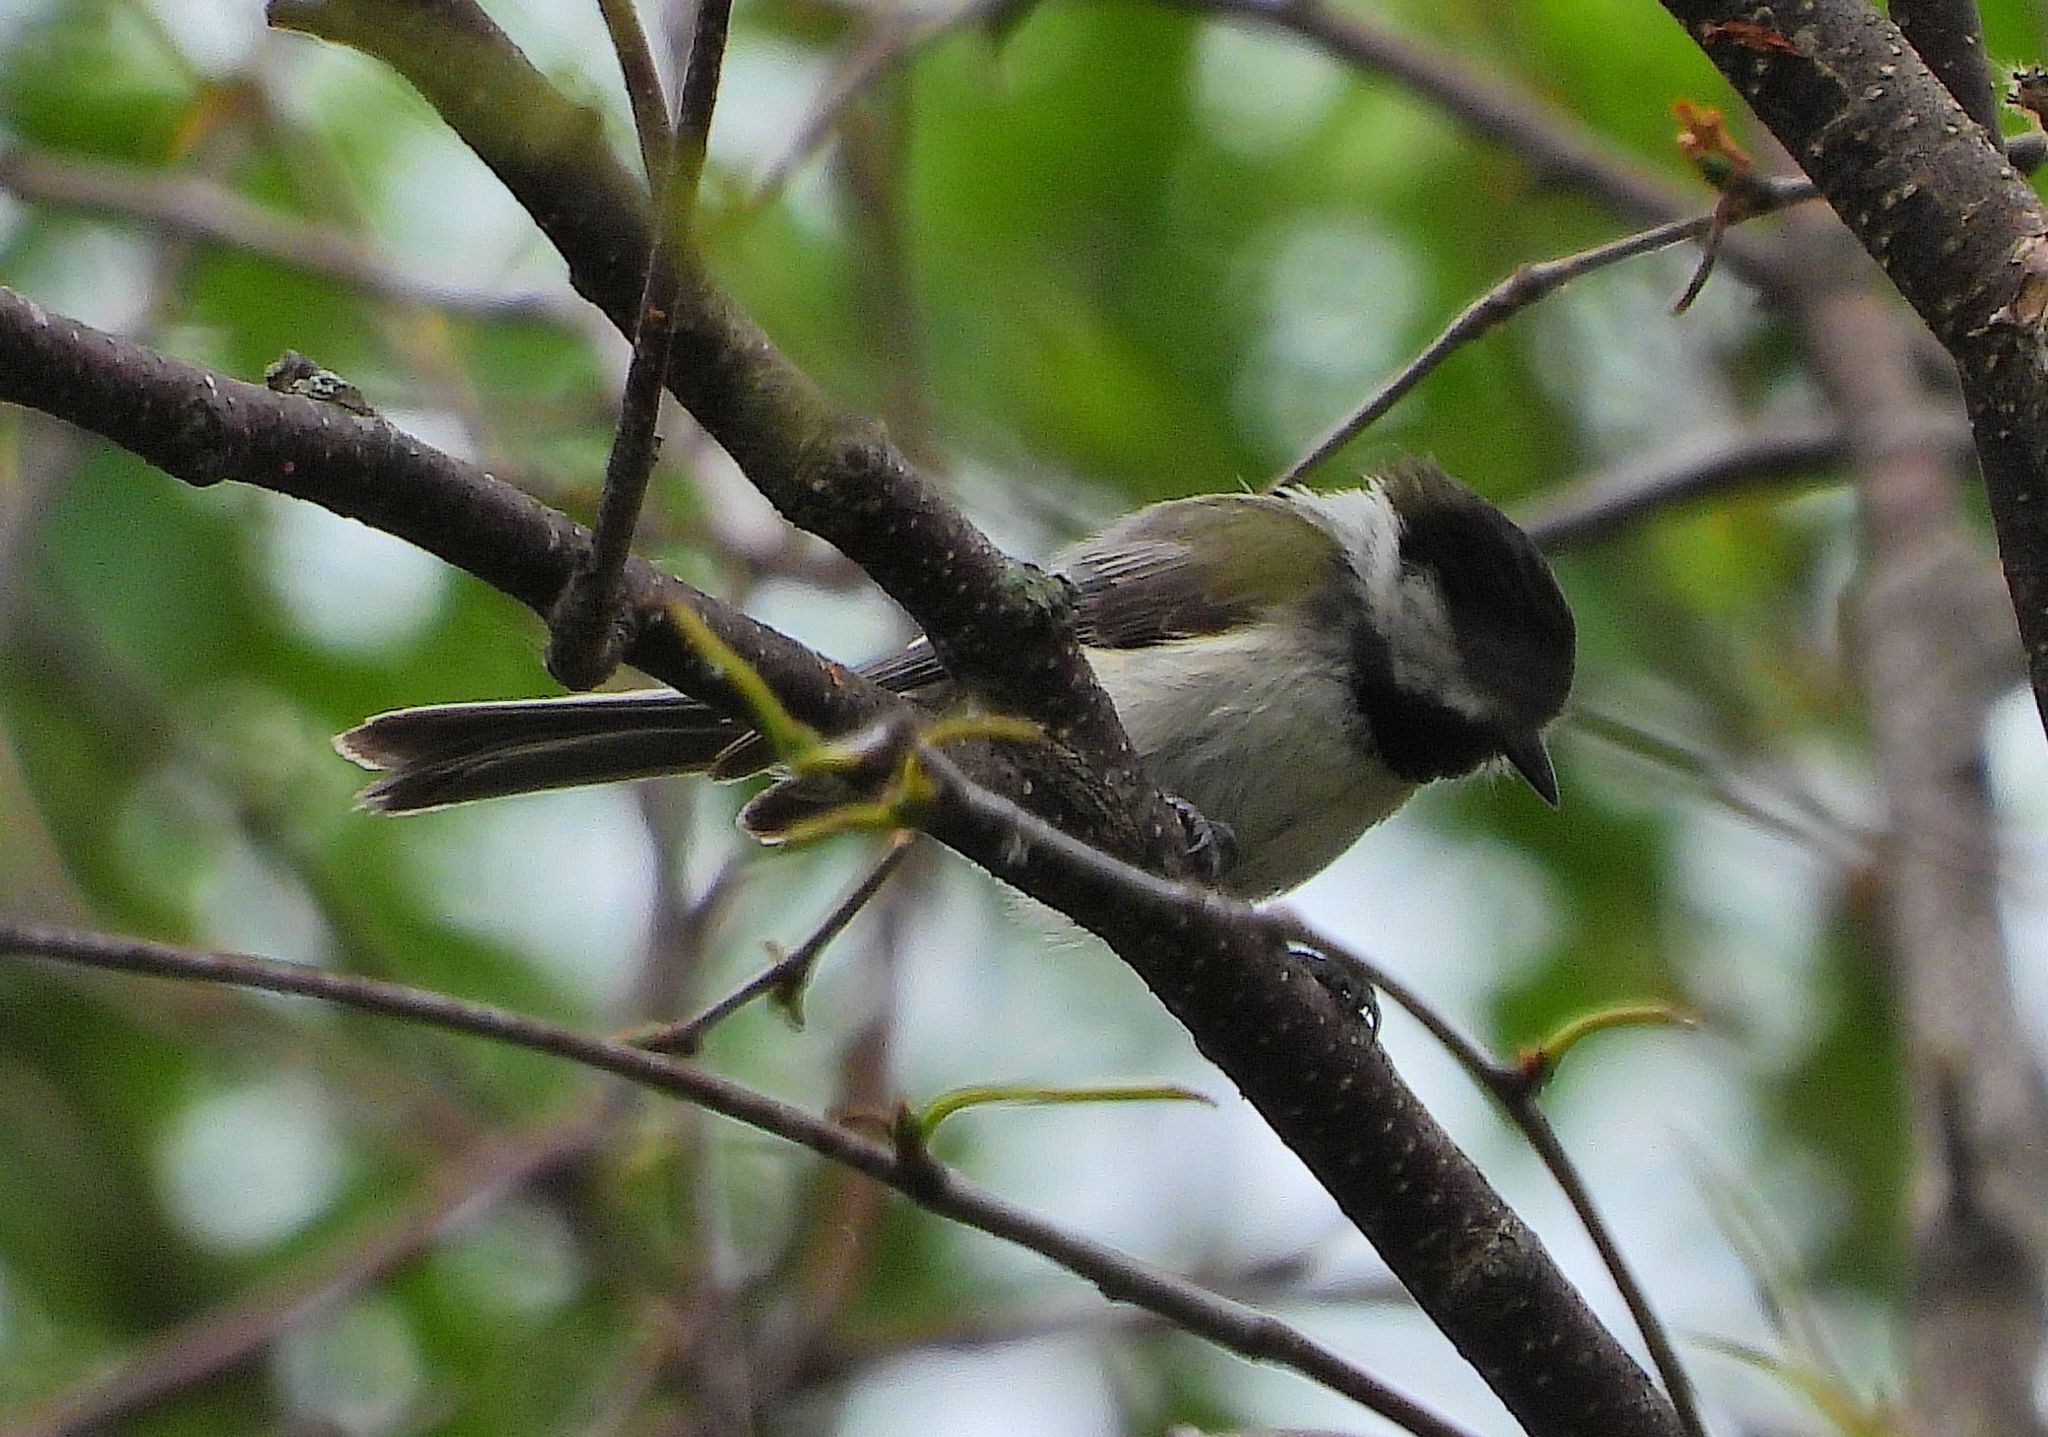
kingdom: Animalia
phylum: Chordata
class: Aves
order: Passeriformes
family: Paridae
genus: Poecile
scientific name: Poecile atricapillus
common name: Black-capped chickadee
